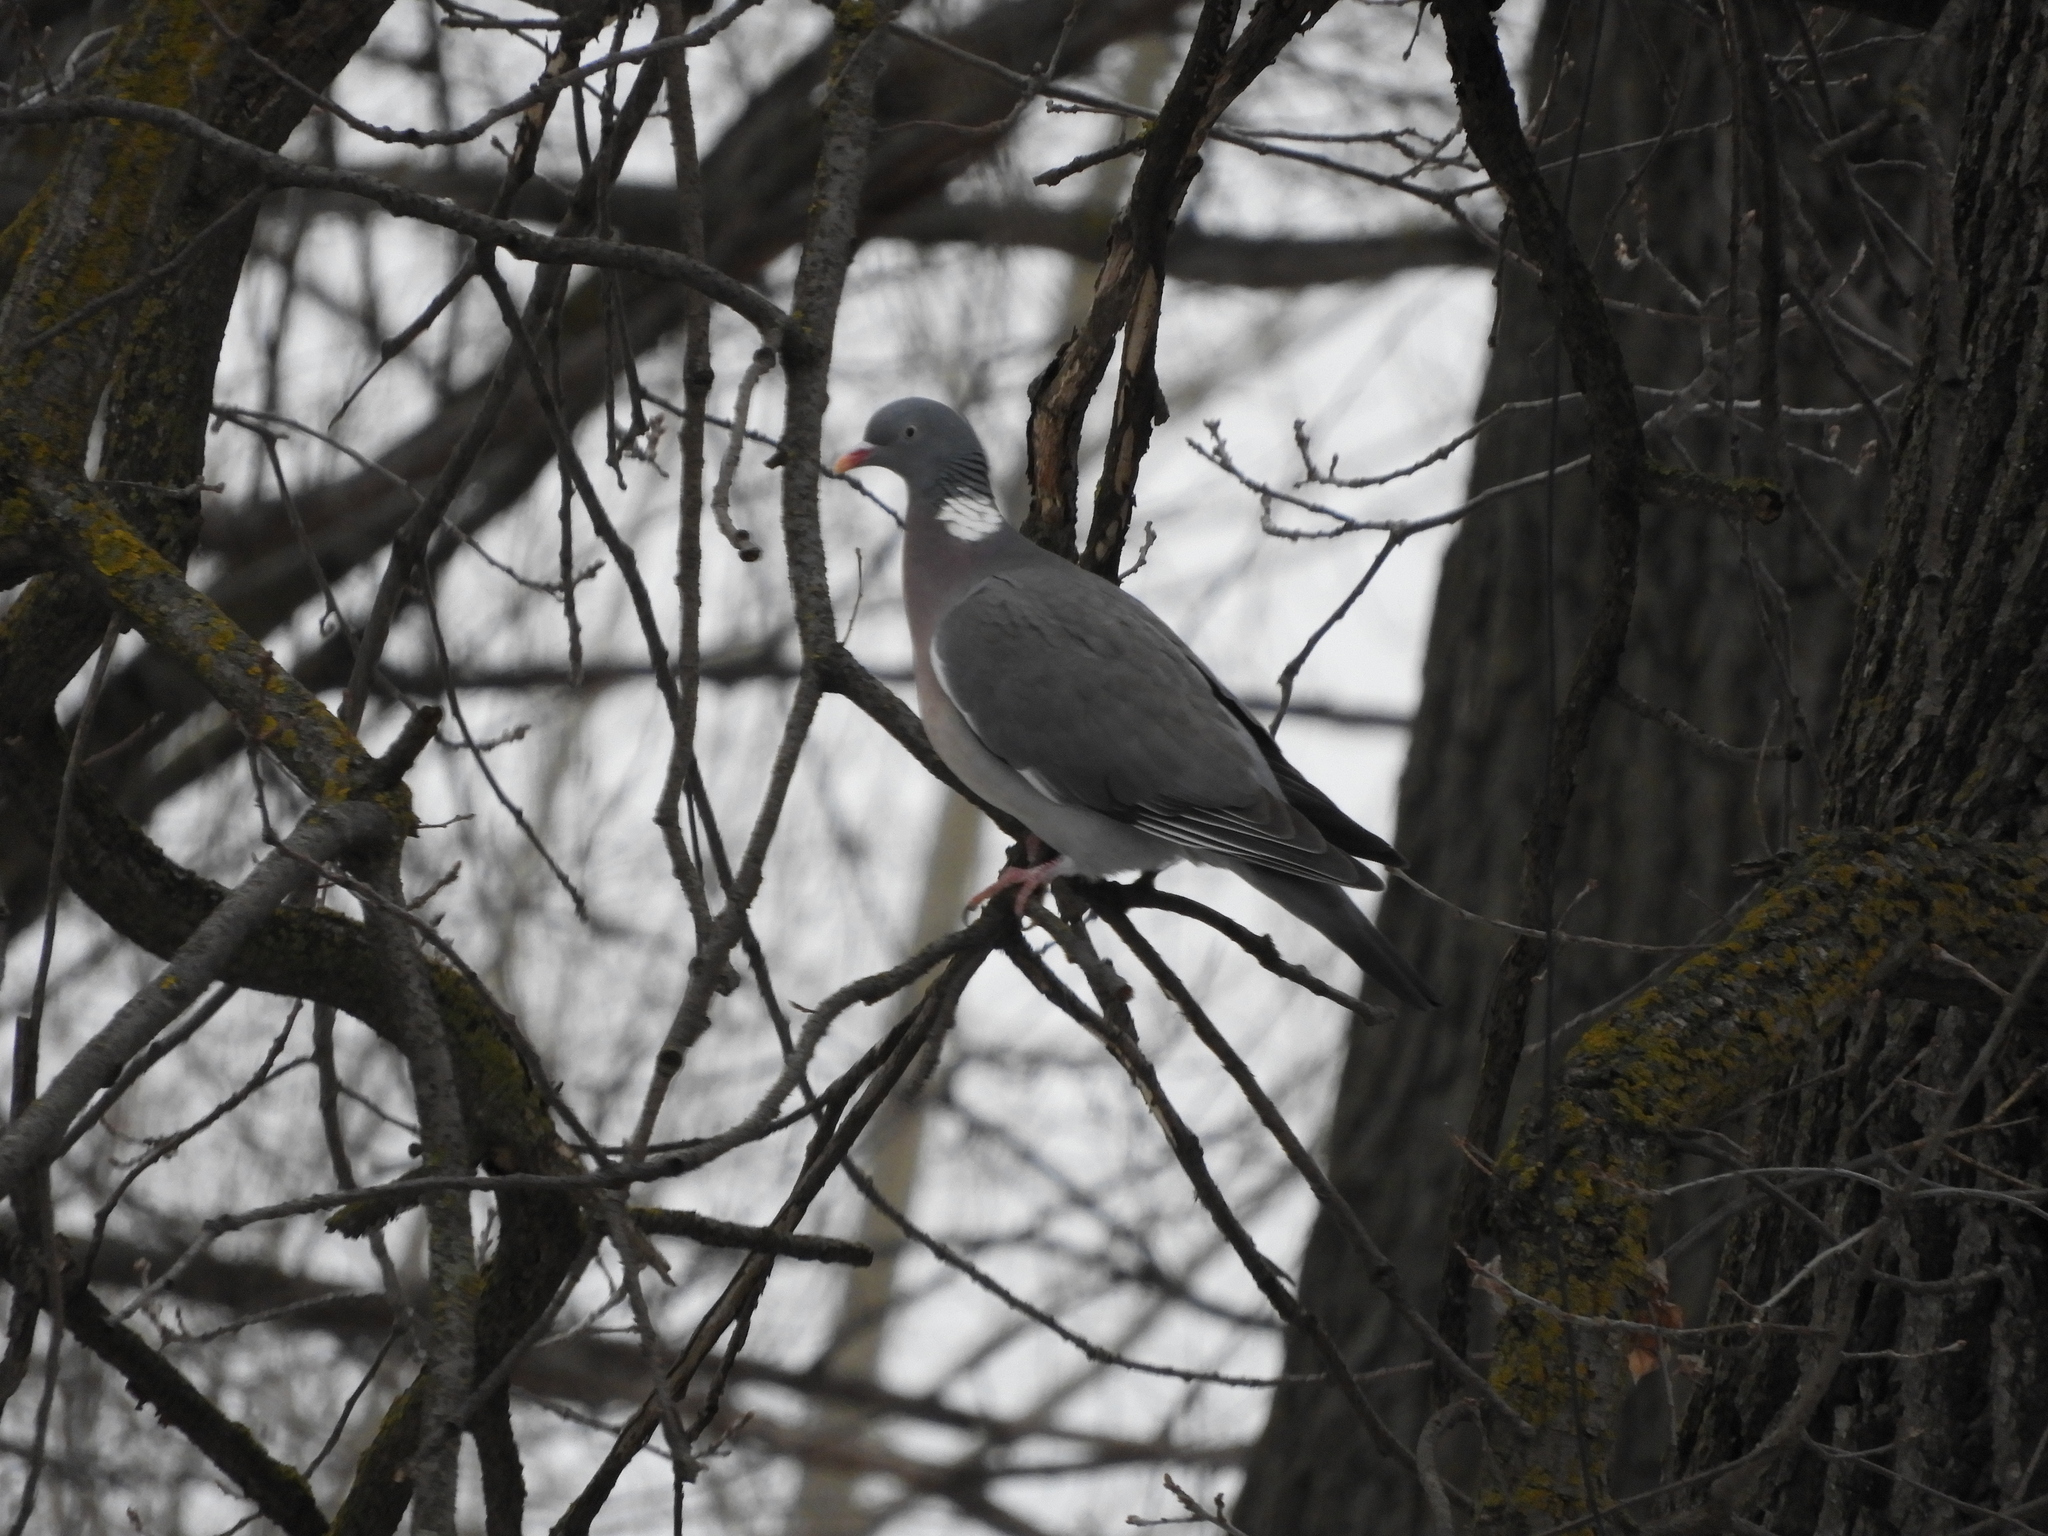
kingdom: Animalia
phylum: Chordata
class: Aves
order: Columbiformes
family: Columbidae
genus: Columba
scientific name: Columba palumbus
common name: Common wood pigeon
